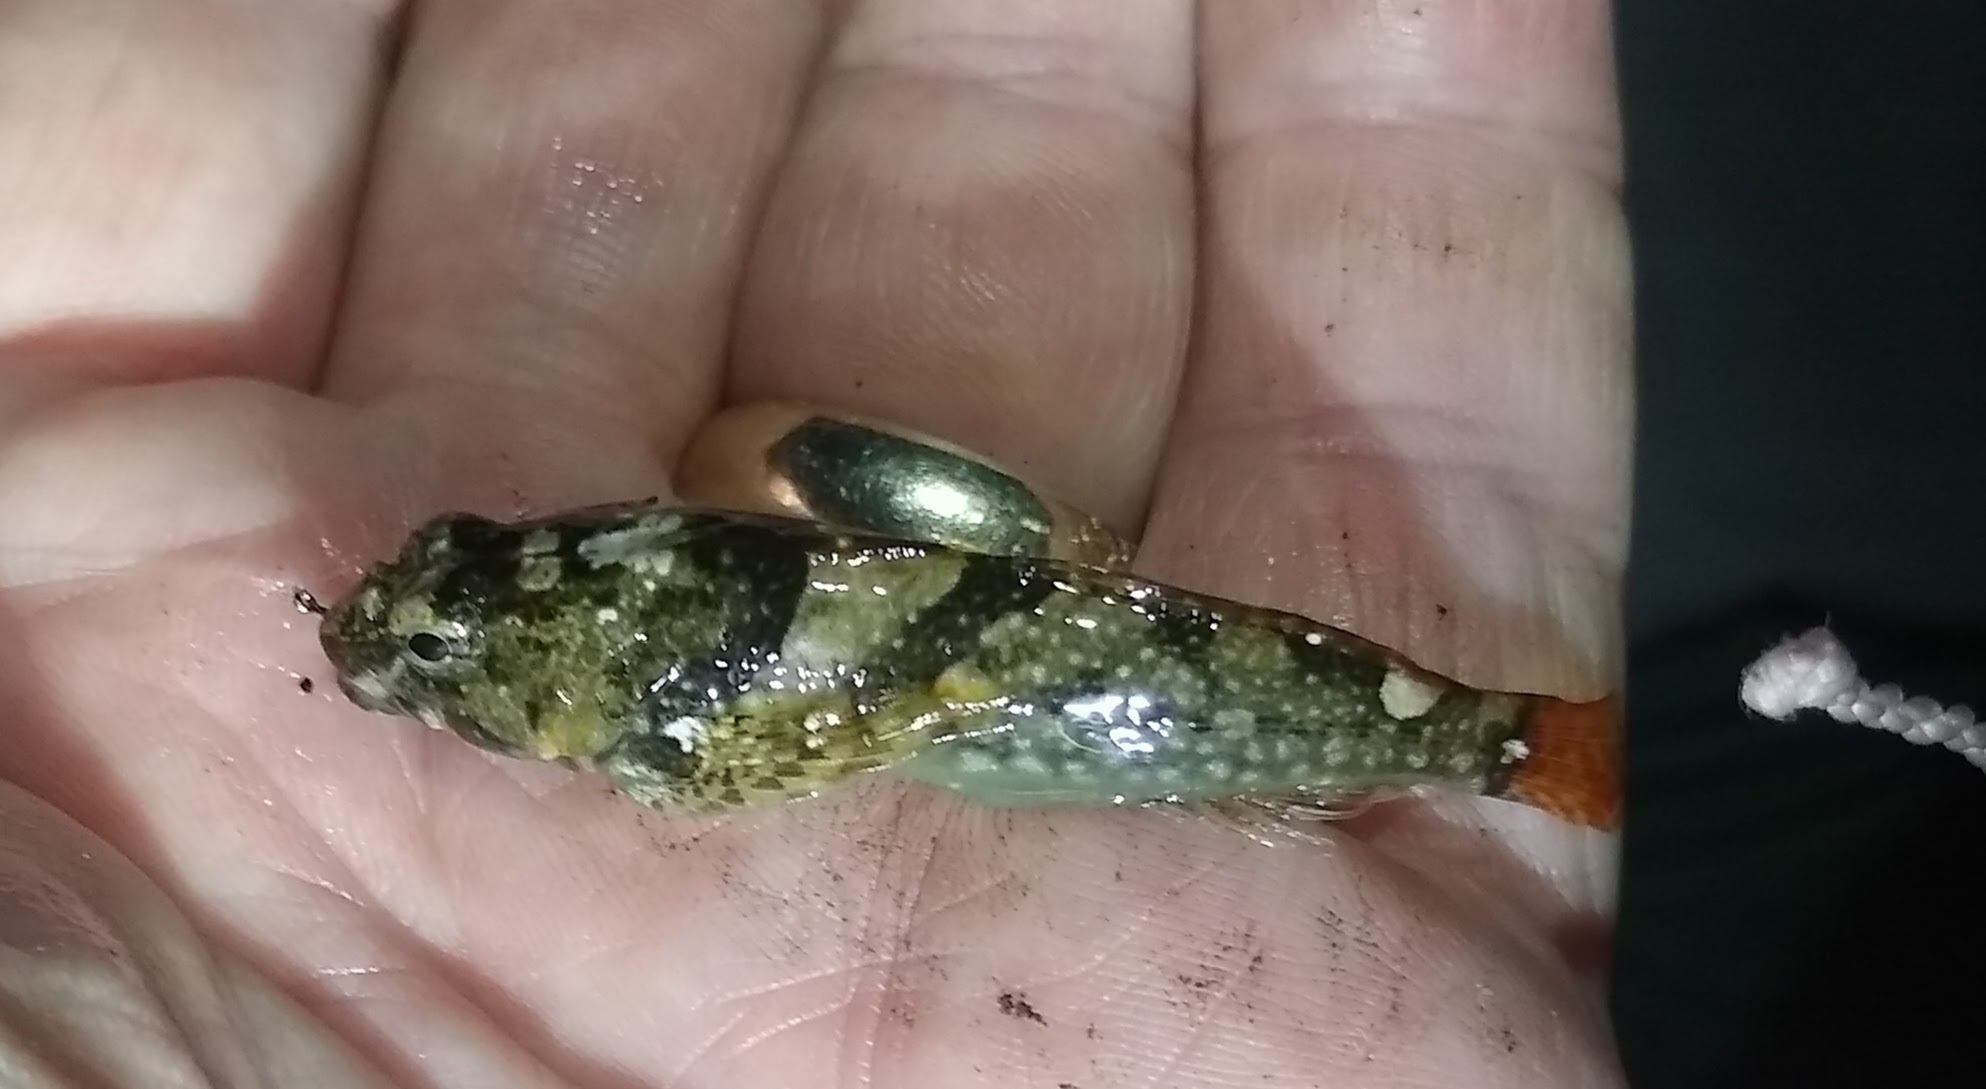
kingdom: Animalia
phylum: Chordata
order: Scorpaeniformes
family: Cottidae
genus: Oligocottus
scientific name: Oligocottus maculosus
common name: Tidepool sculpin
